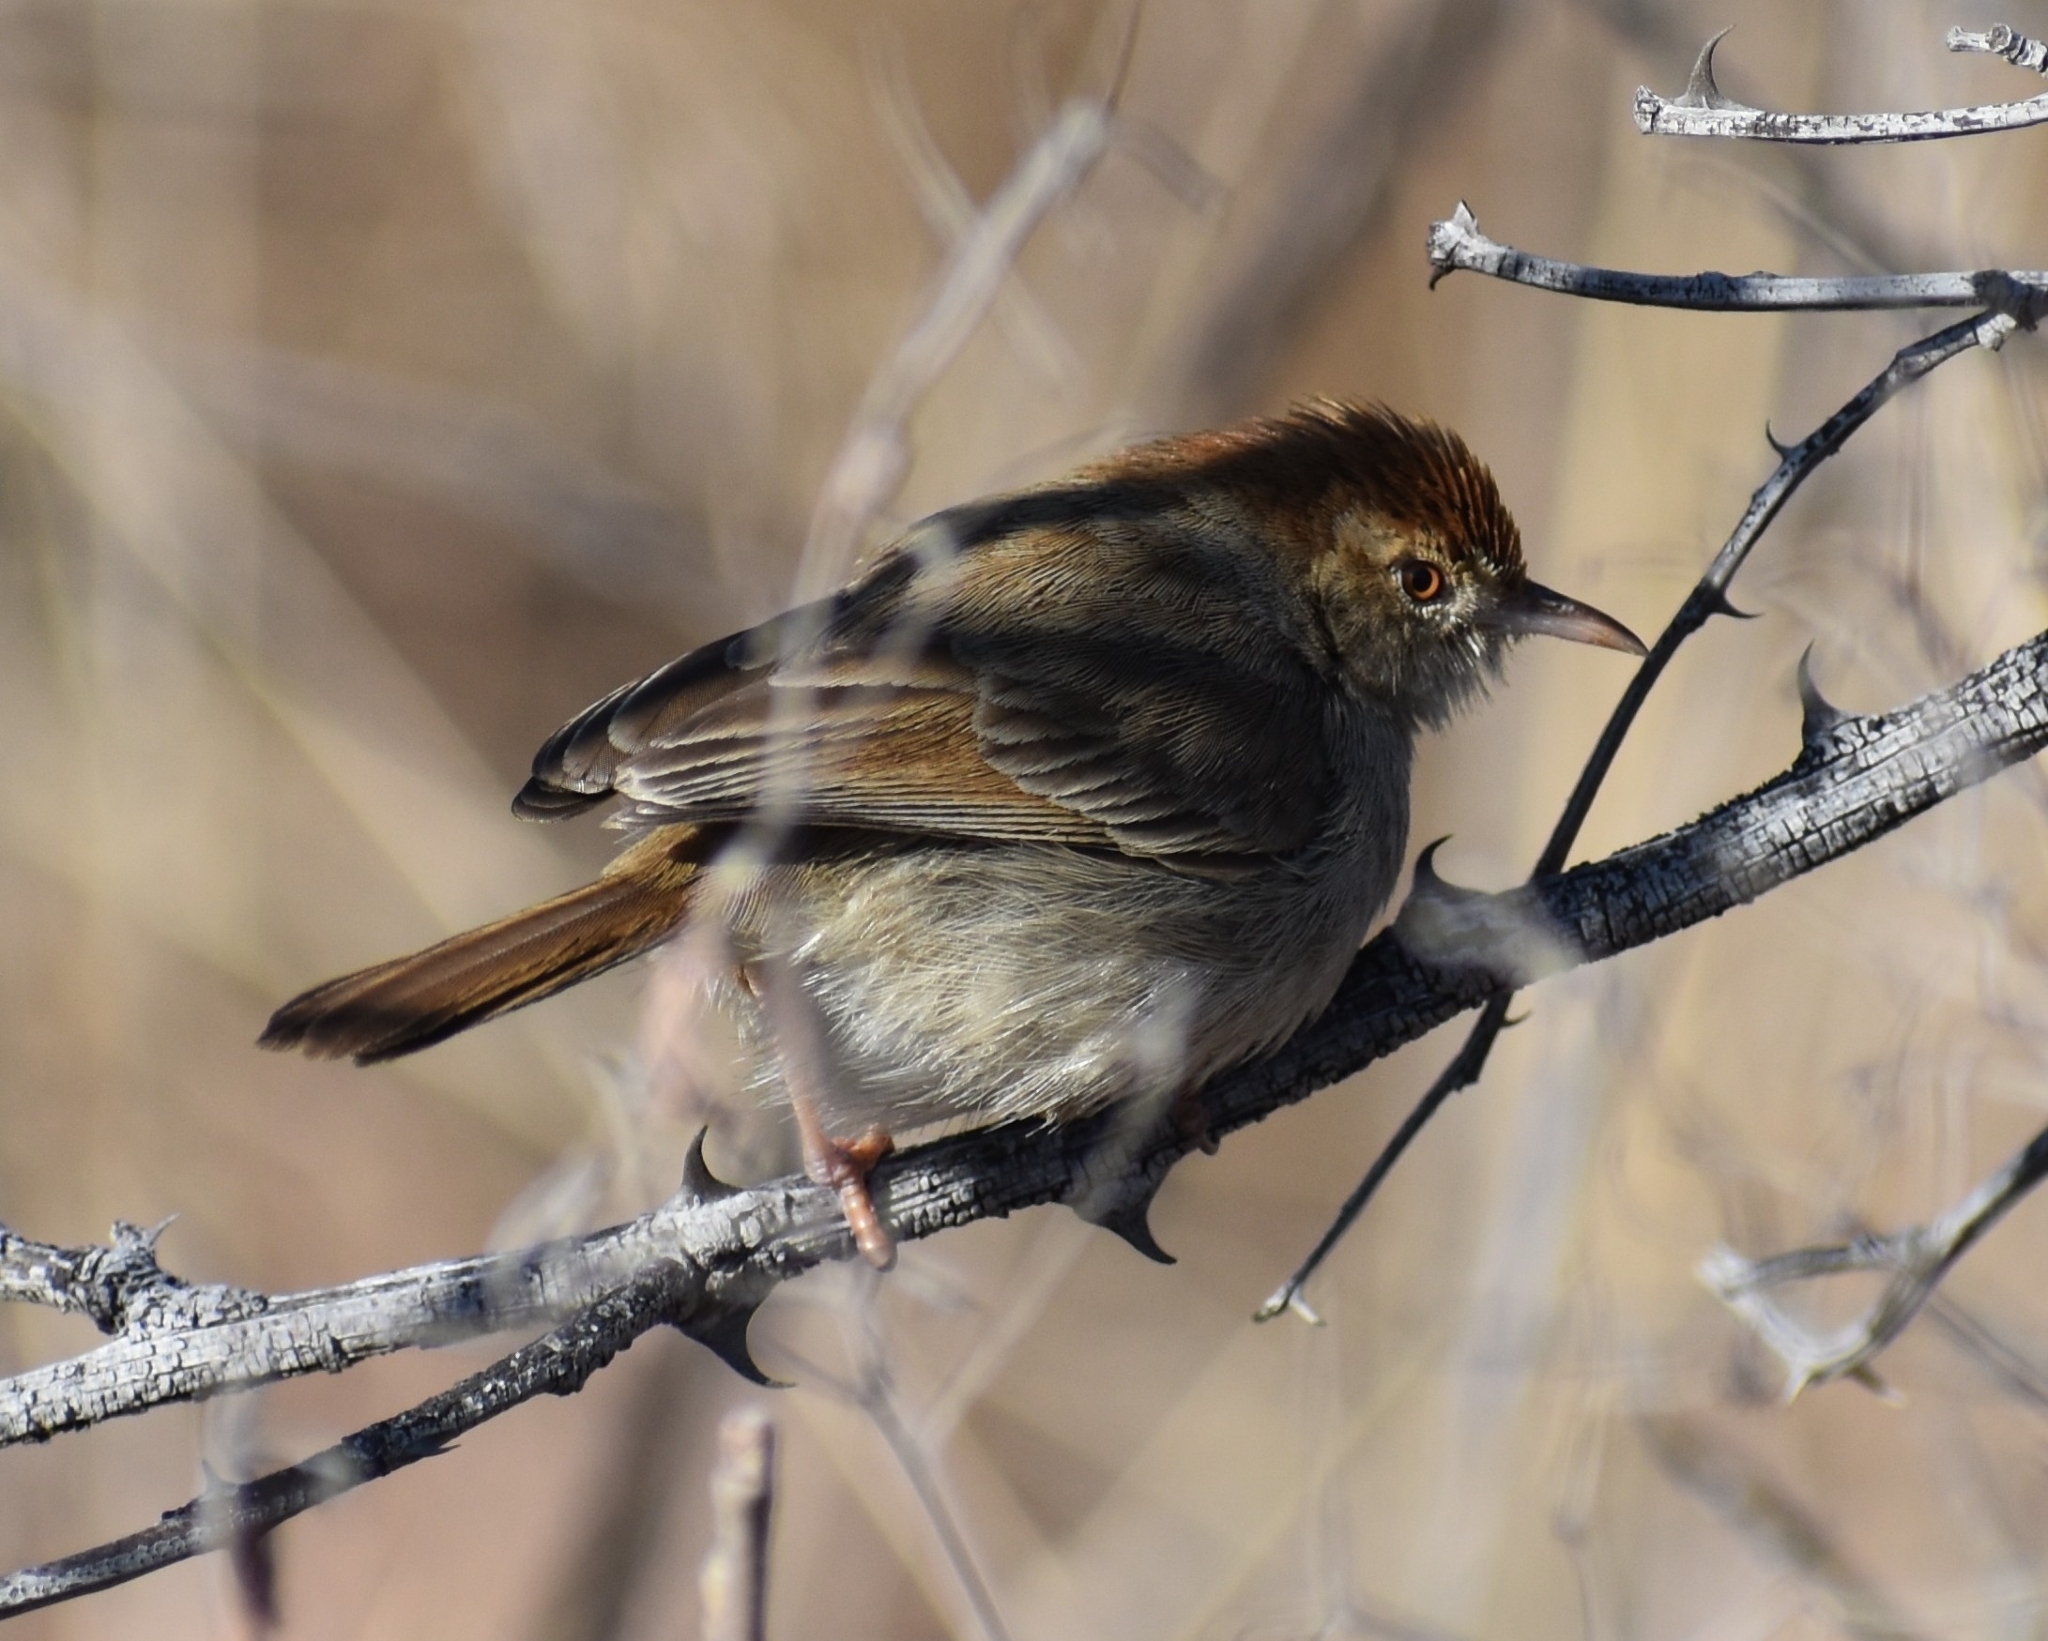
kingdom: Animalia
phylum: Chordata
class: Aves
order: Passeriformes
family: Cisticolidae
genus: Cisticola
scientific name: Cisticola fulvicapilla
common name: Neddicky
